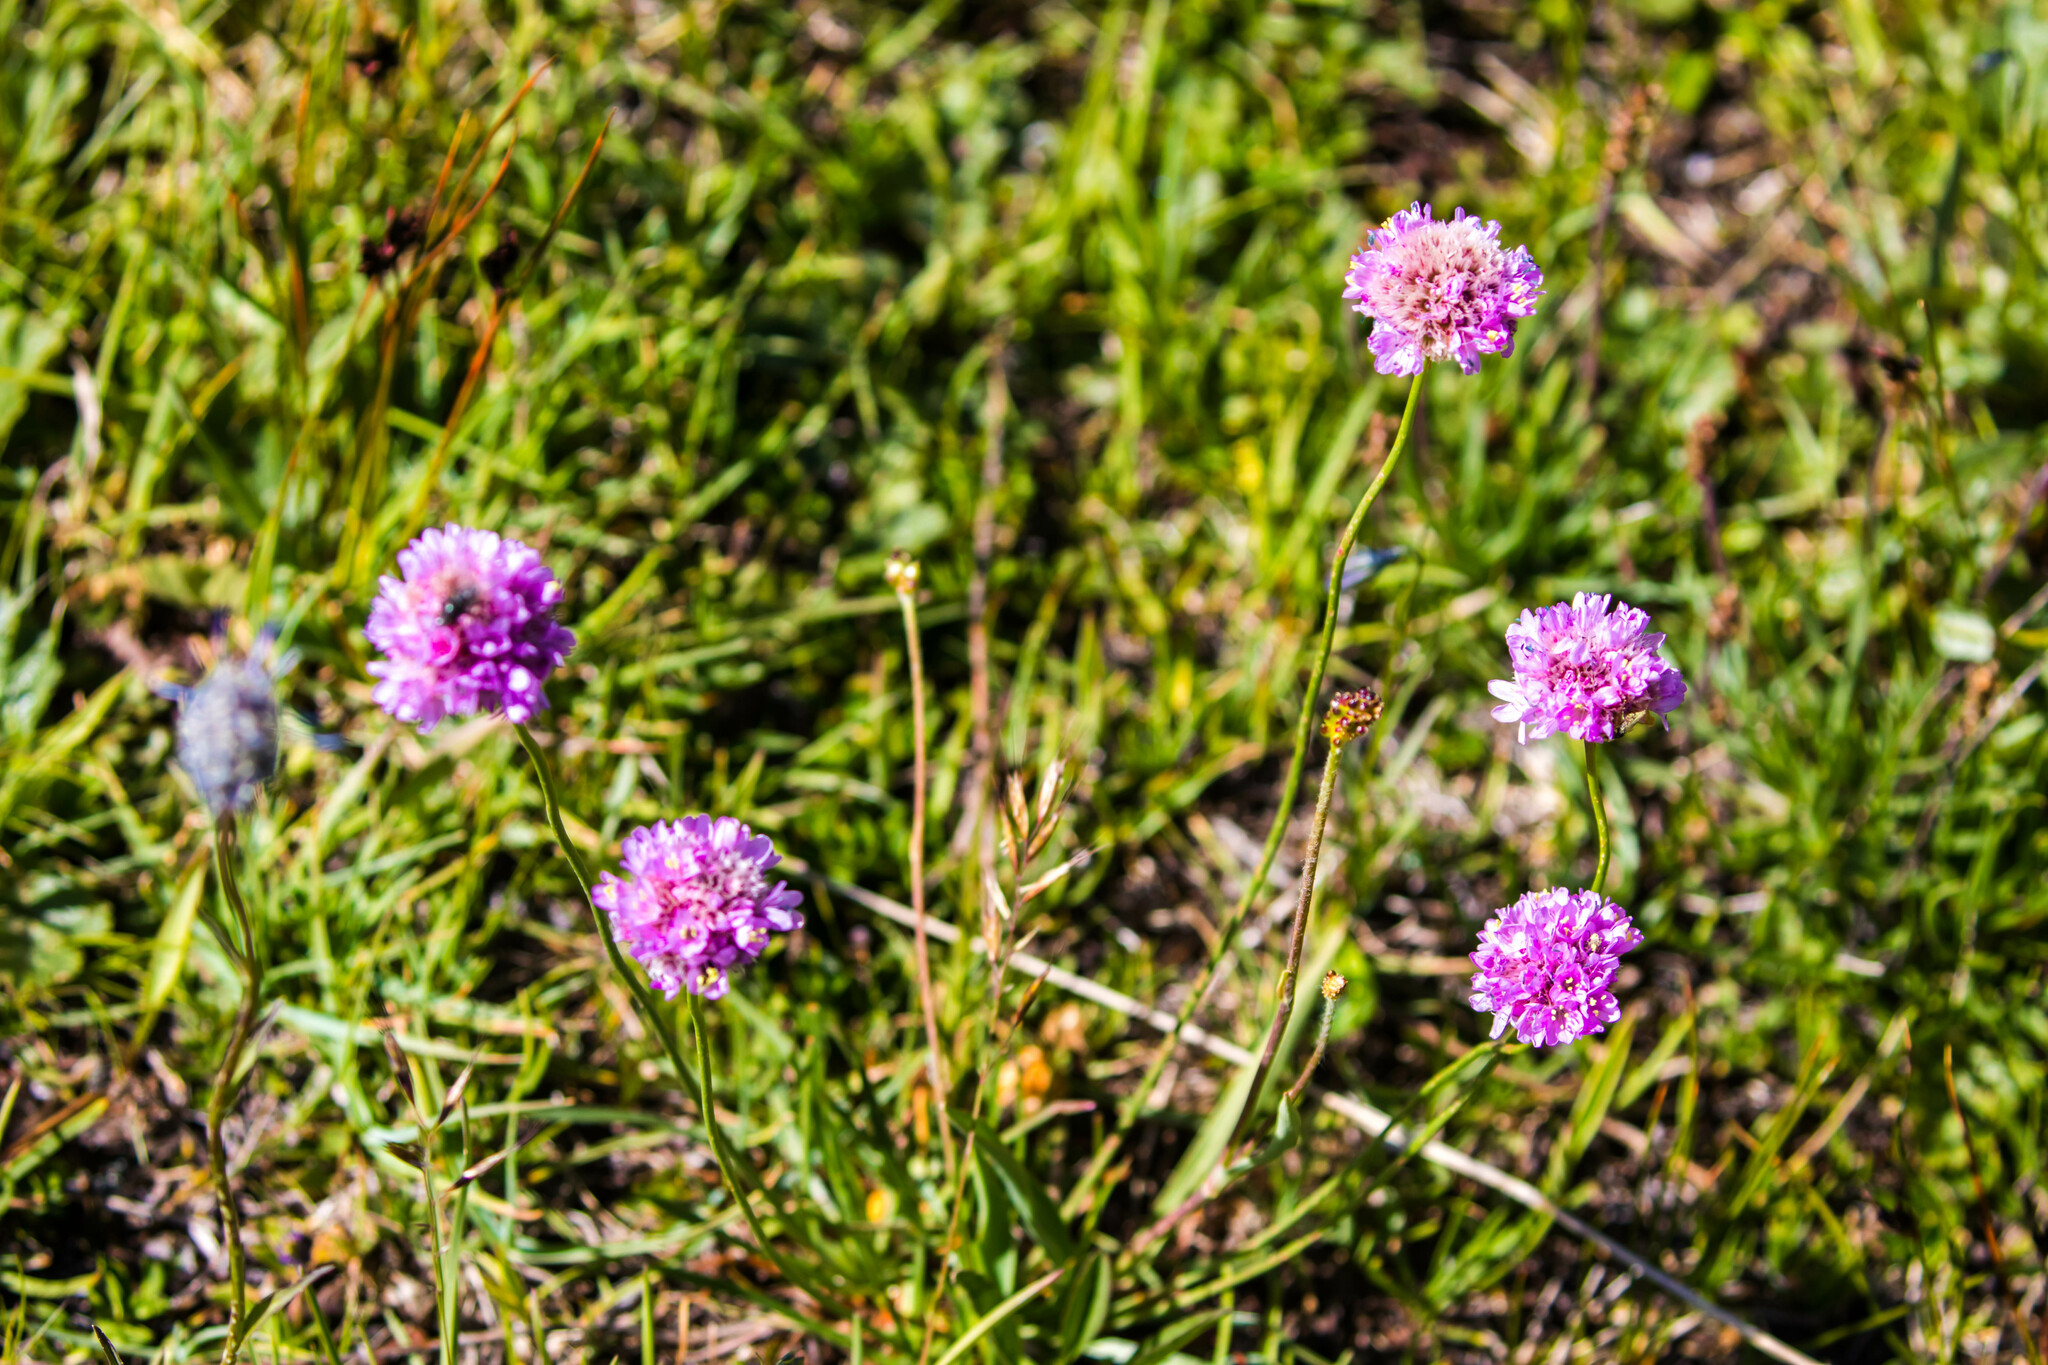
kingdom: Plantae
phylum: Tracheophyta
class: Magnoliopsida
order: Caryophyllales
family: Plumbaginaceae
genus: Armeria
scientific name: Armeria alpina
